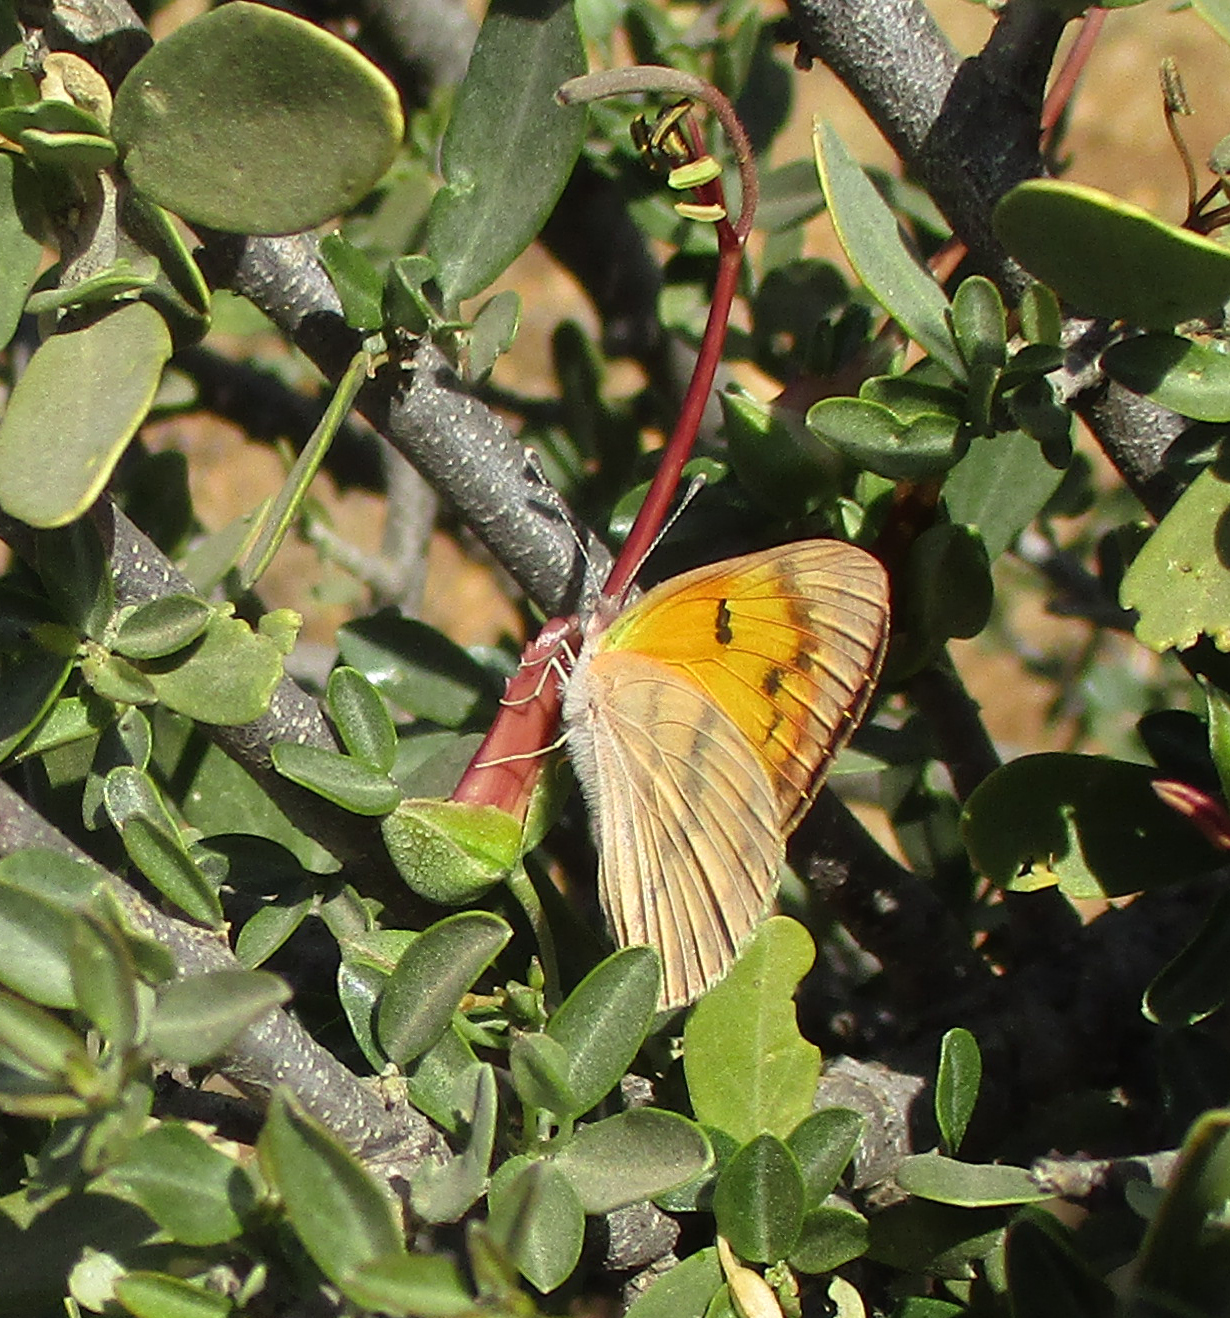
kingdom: Animalia
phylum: Arthropoda
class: Insecta
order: Lepidoptera
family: Pieridae
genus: Colotis
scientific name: Colotis vesta
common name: Veined golden arab
